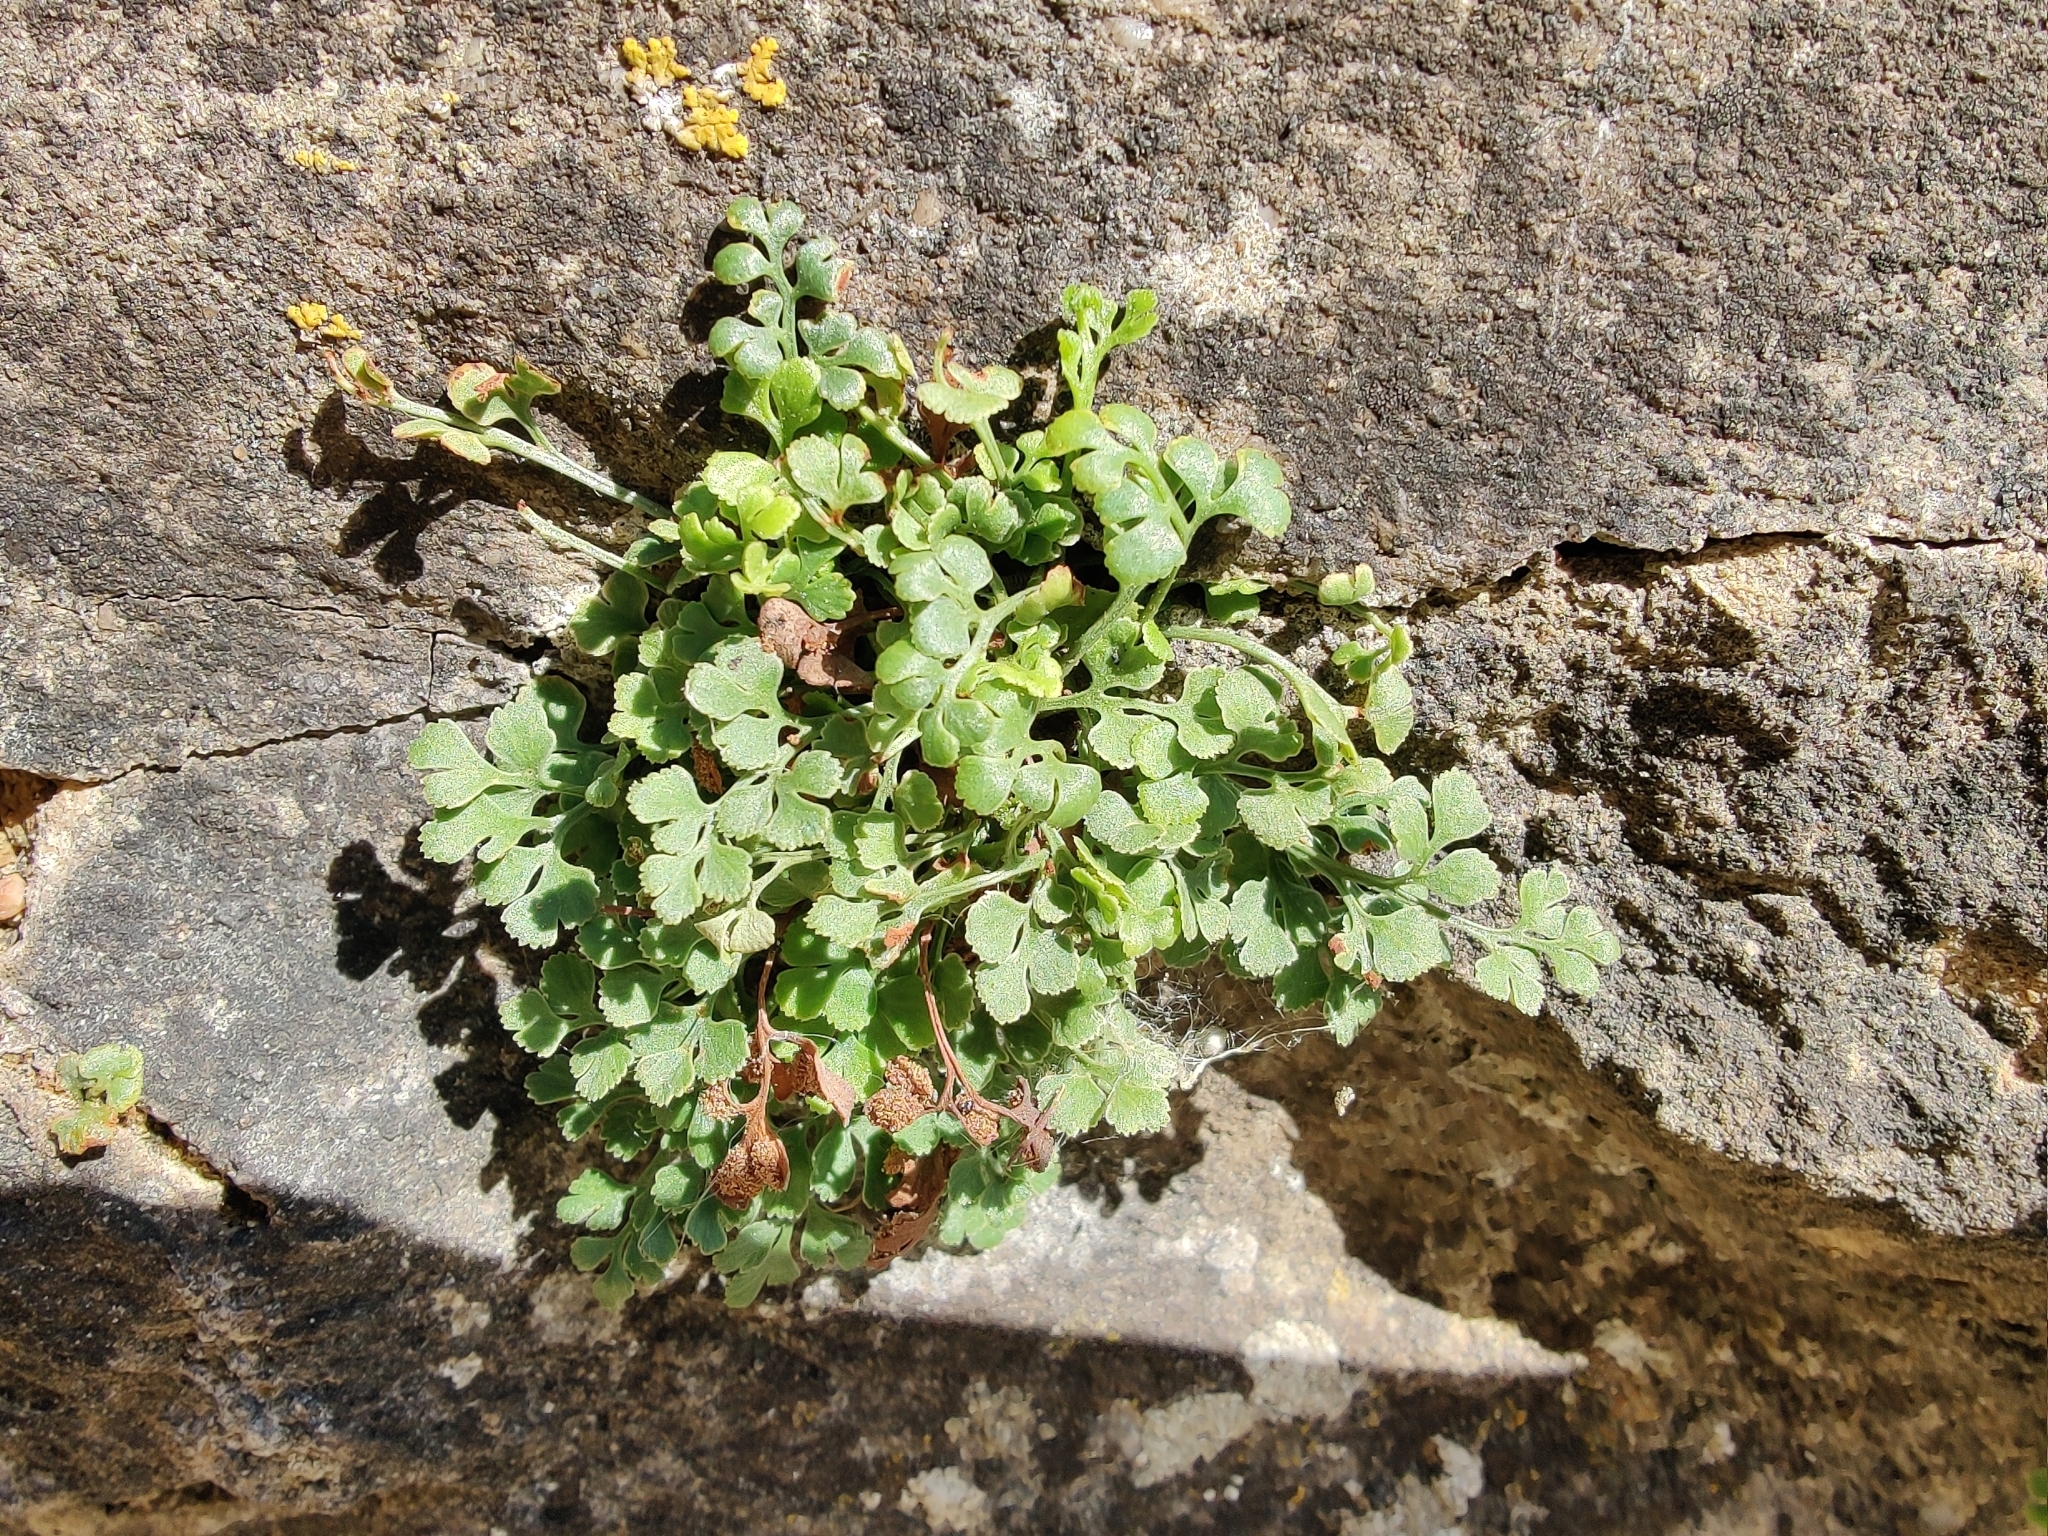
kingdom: Plantae
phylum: Tracheophyta
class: Polypodiopsida
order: Polypodiales
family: Aspleniaceae
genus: Asplenium
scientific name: Asplenium ruta-muraria
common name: Wall-rue
